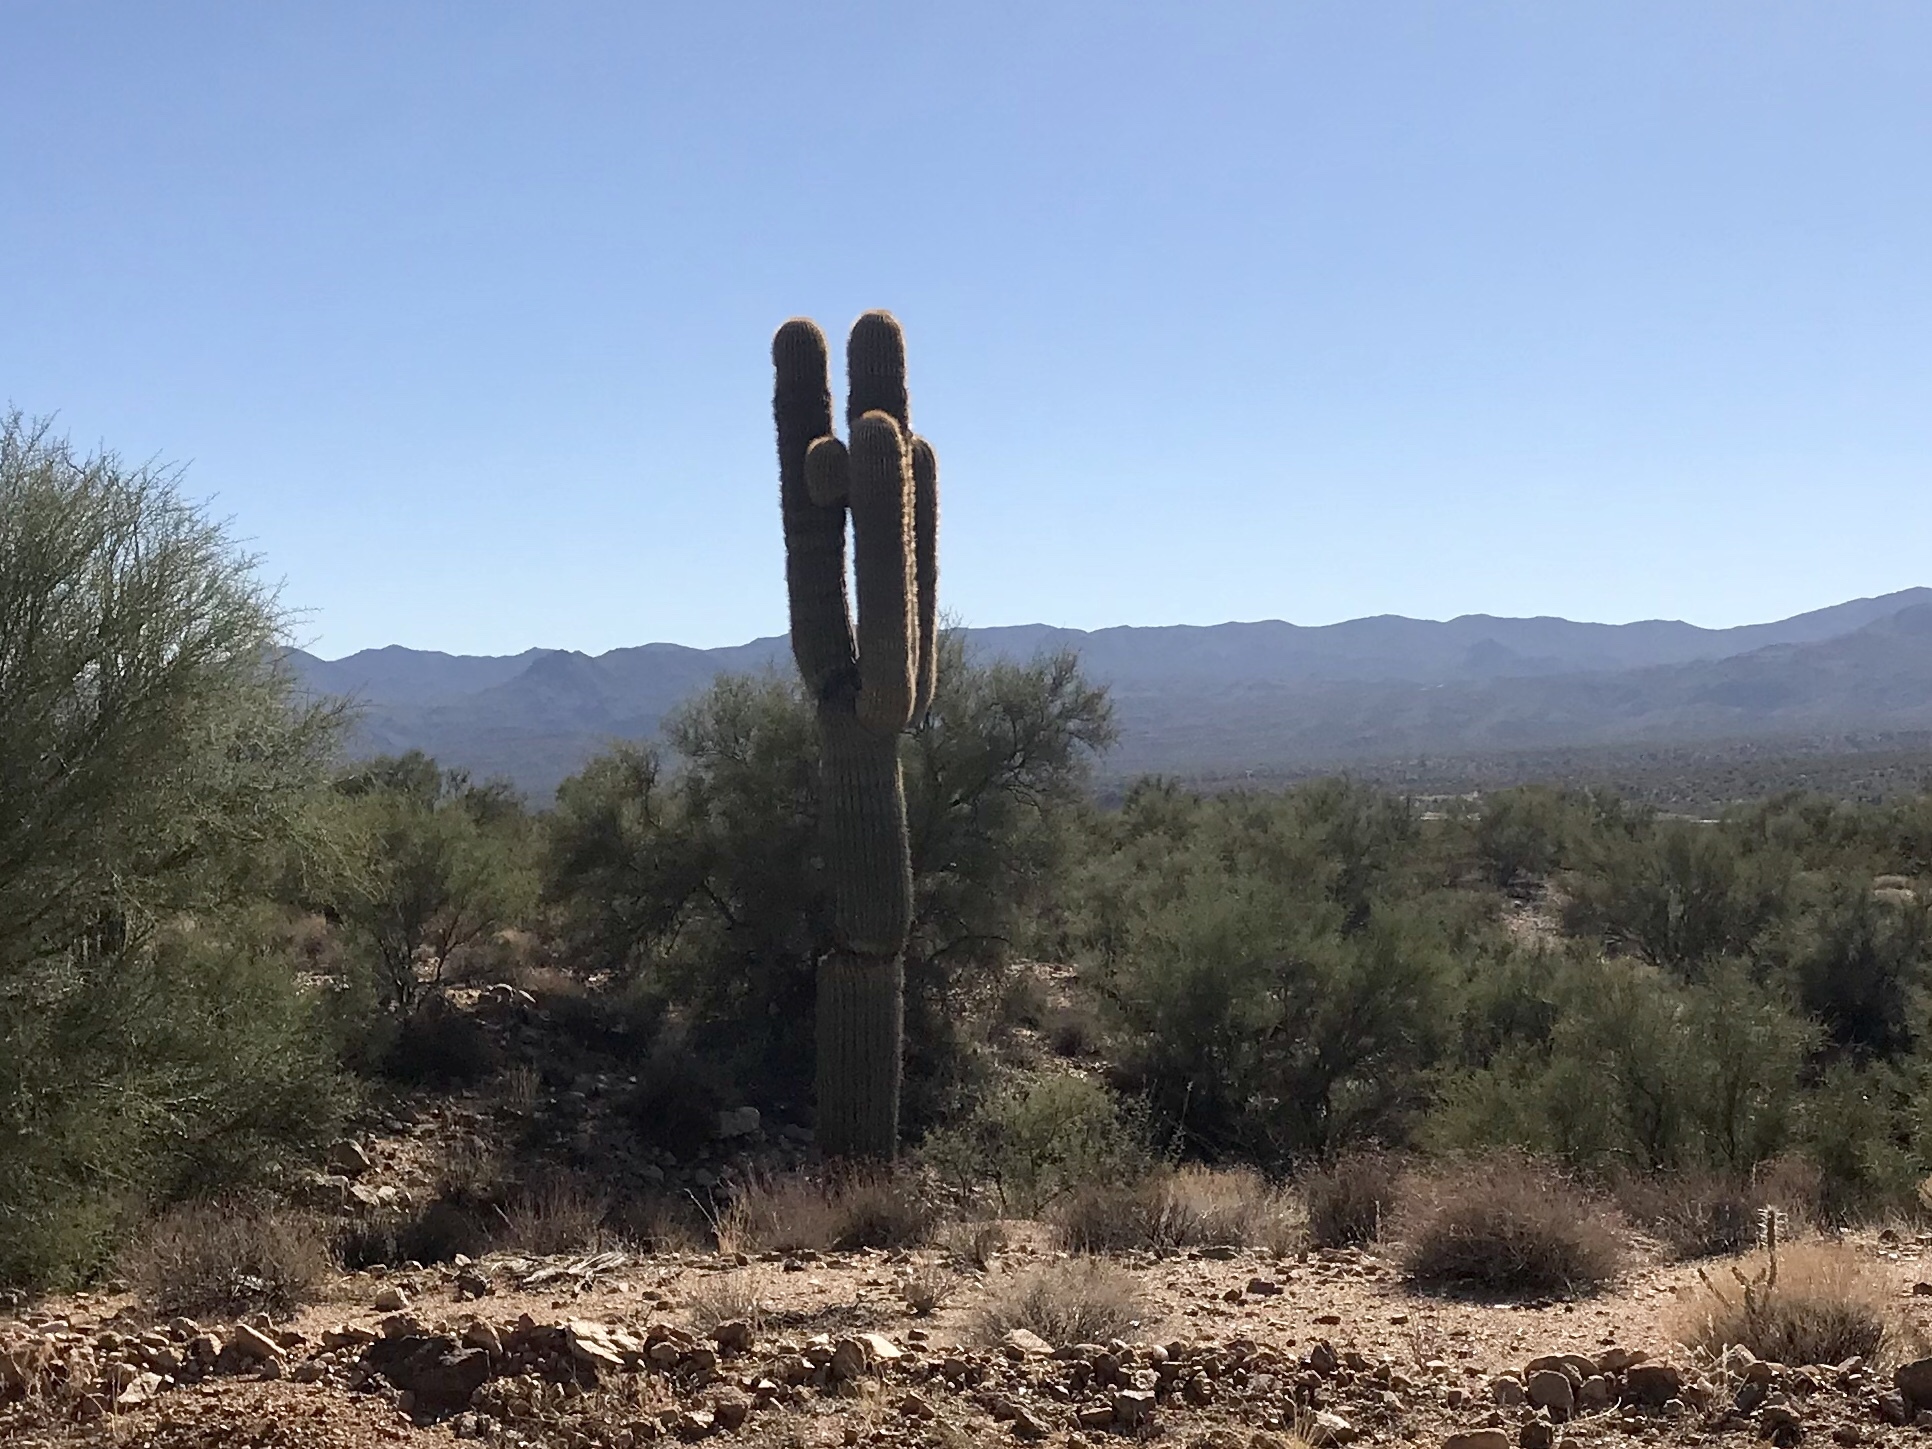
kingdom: Plantae
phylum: Tracheophyta
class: Magnoliopsida
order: Caryophyllales
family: Cactaceae
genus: Carnegiea
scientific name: Carnegiea gigantea
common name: Saguaro
